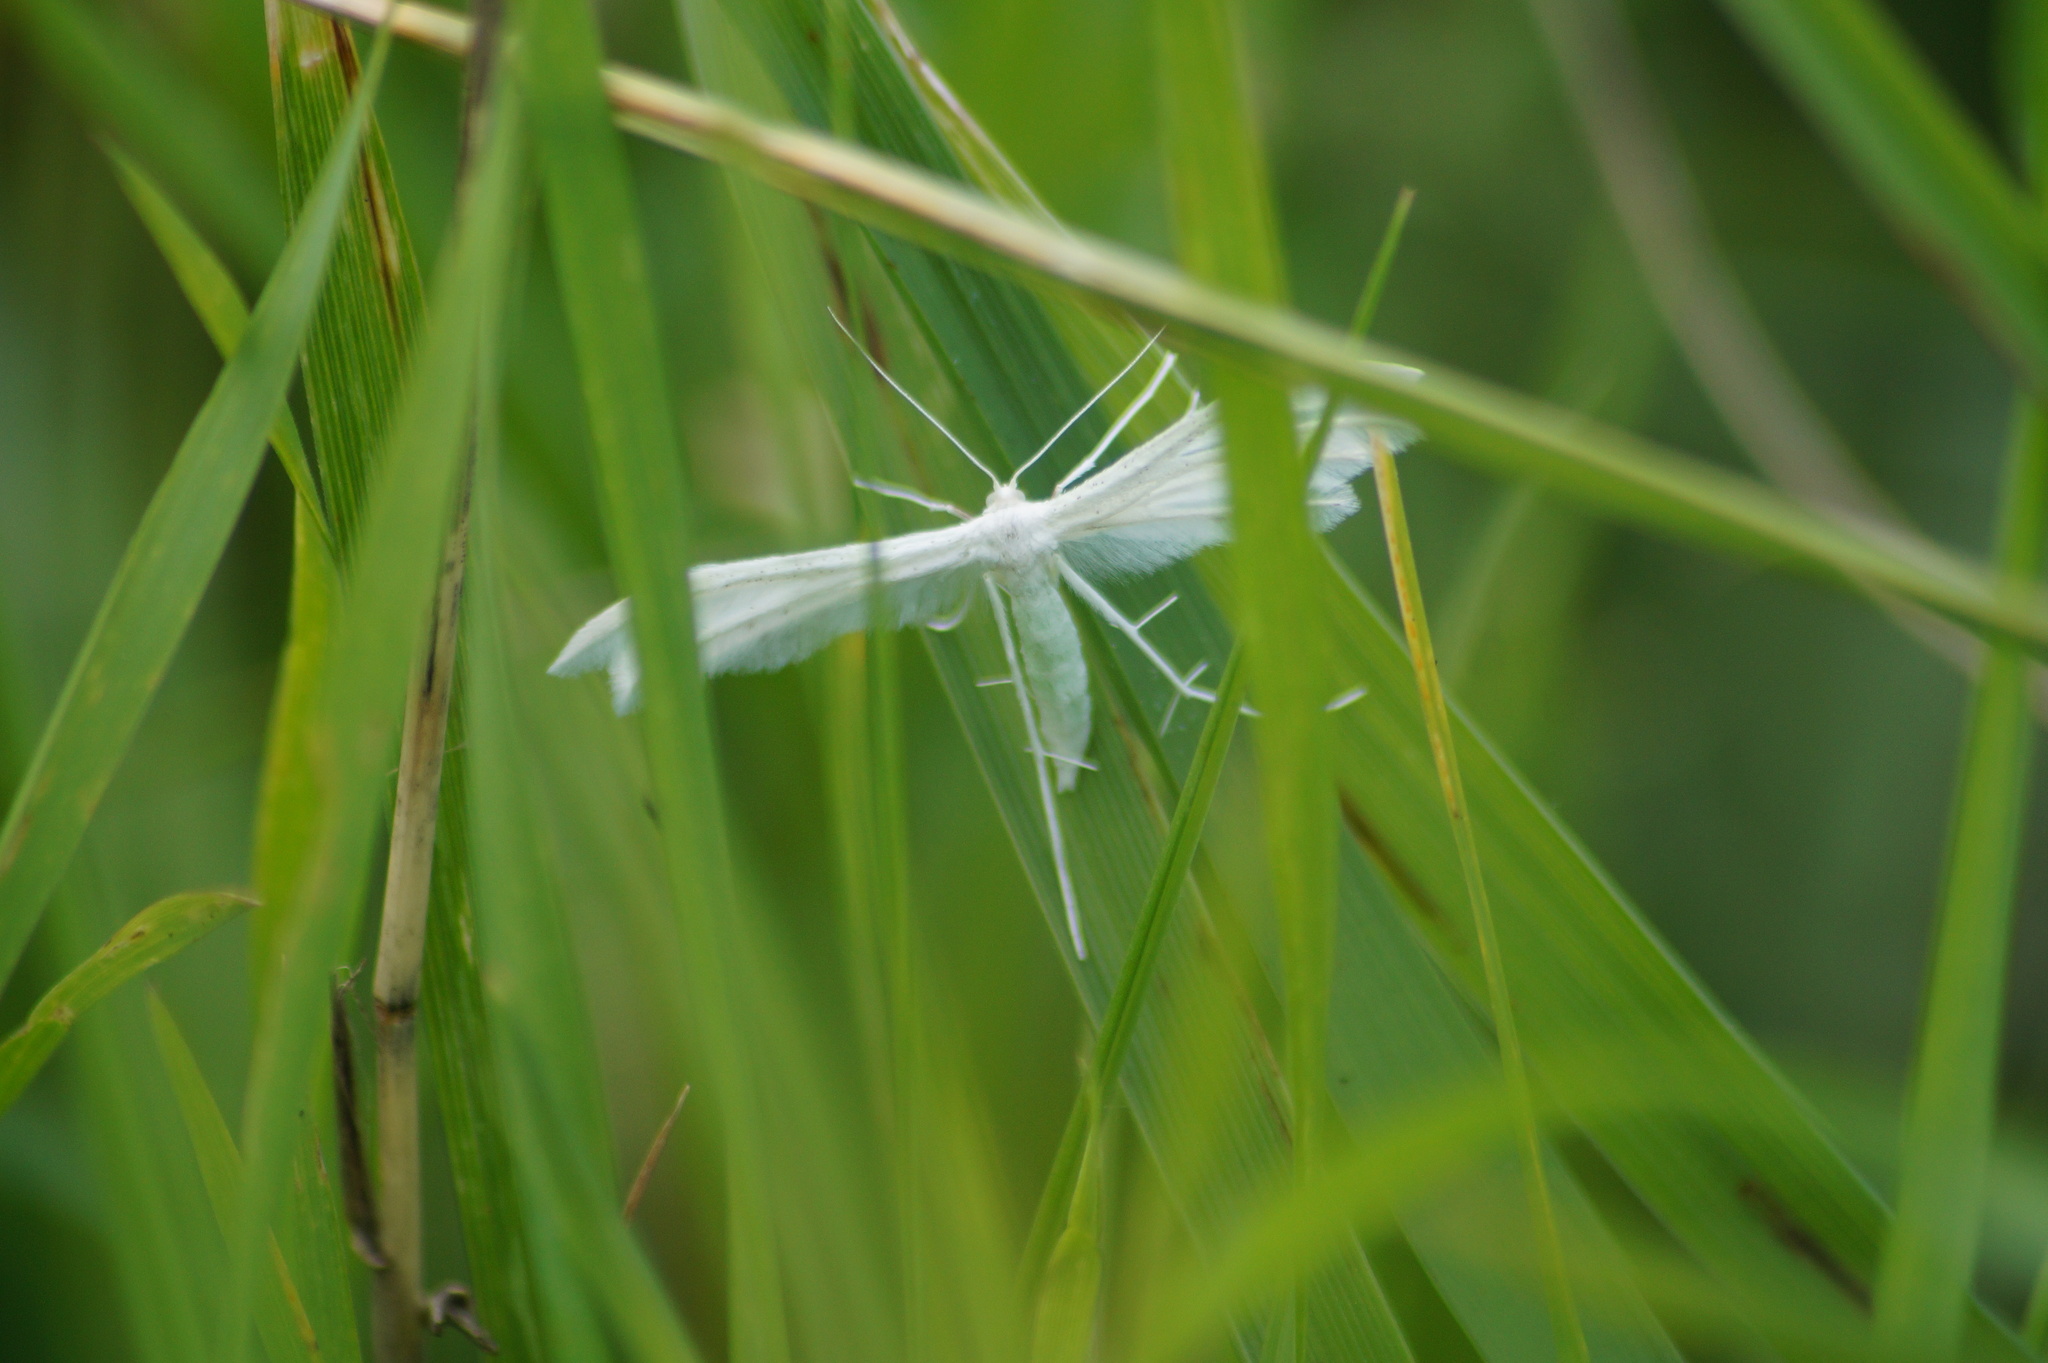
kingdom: Animalia
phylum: Arthropoda
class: Insecta
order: Lepidoptera
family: Pterophoridae
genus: Pterophorus
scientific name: Pterophorus pentadactyla
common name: White plume moth
